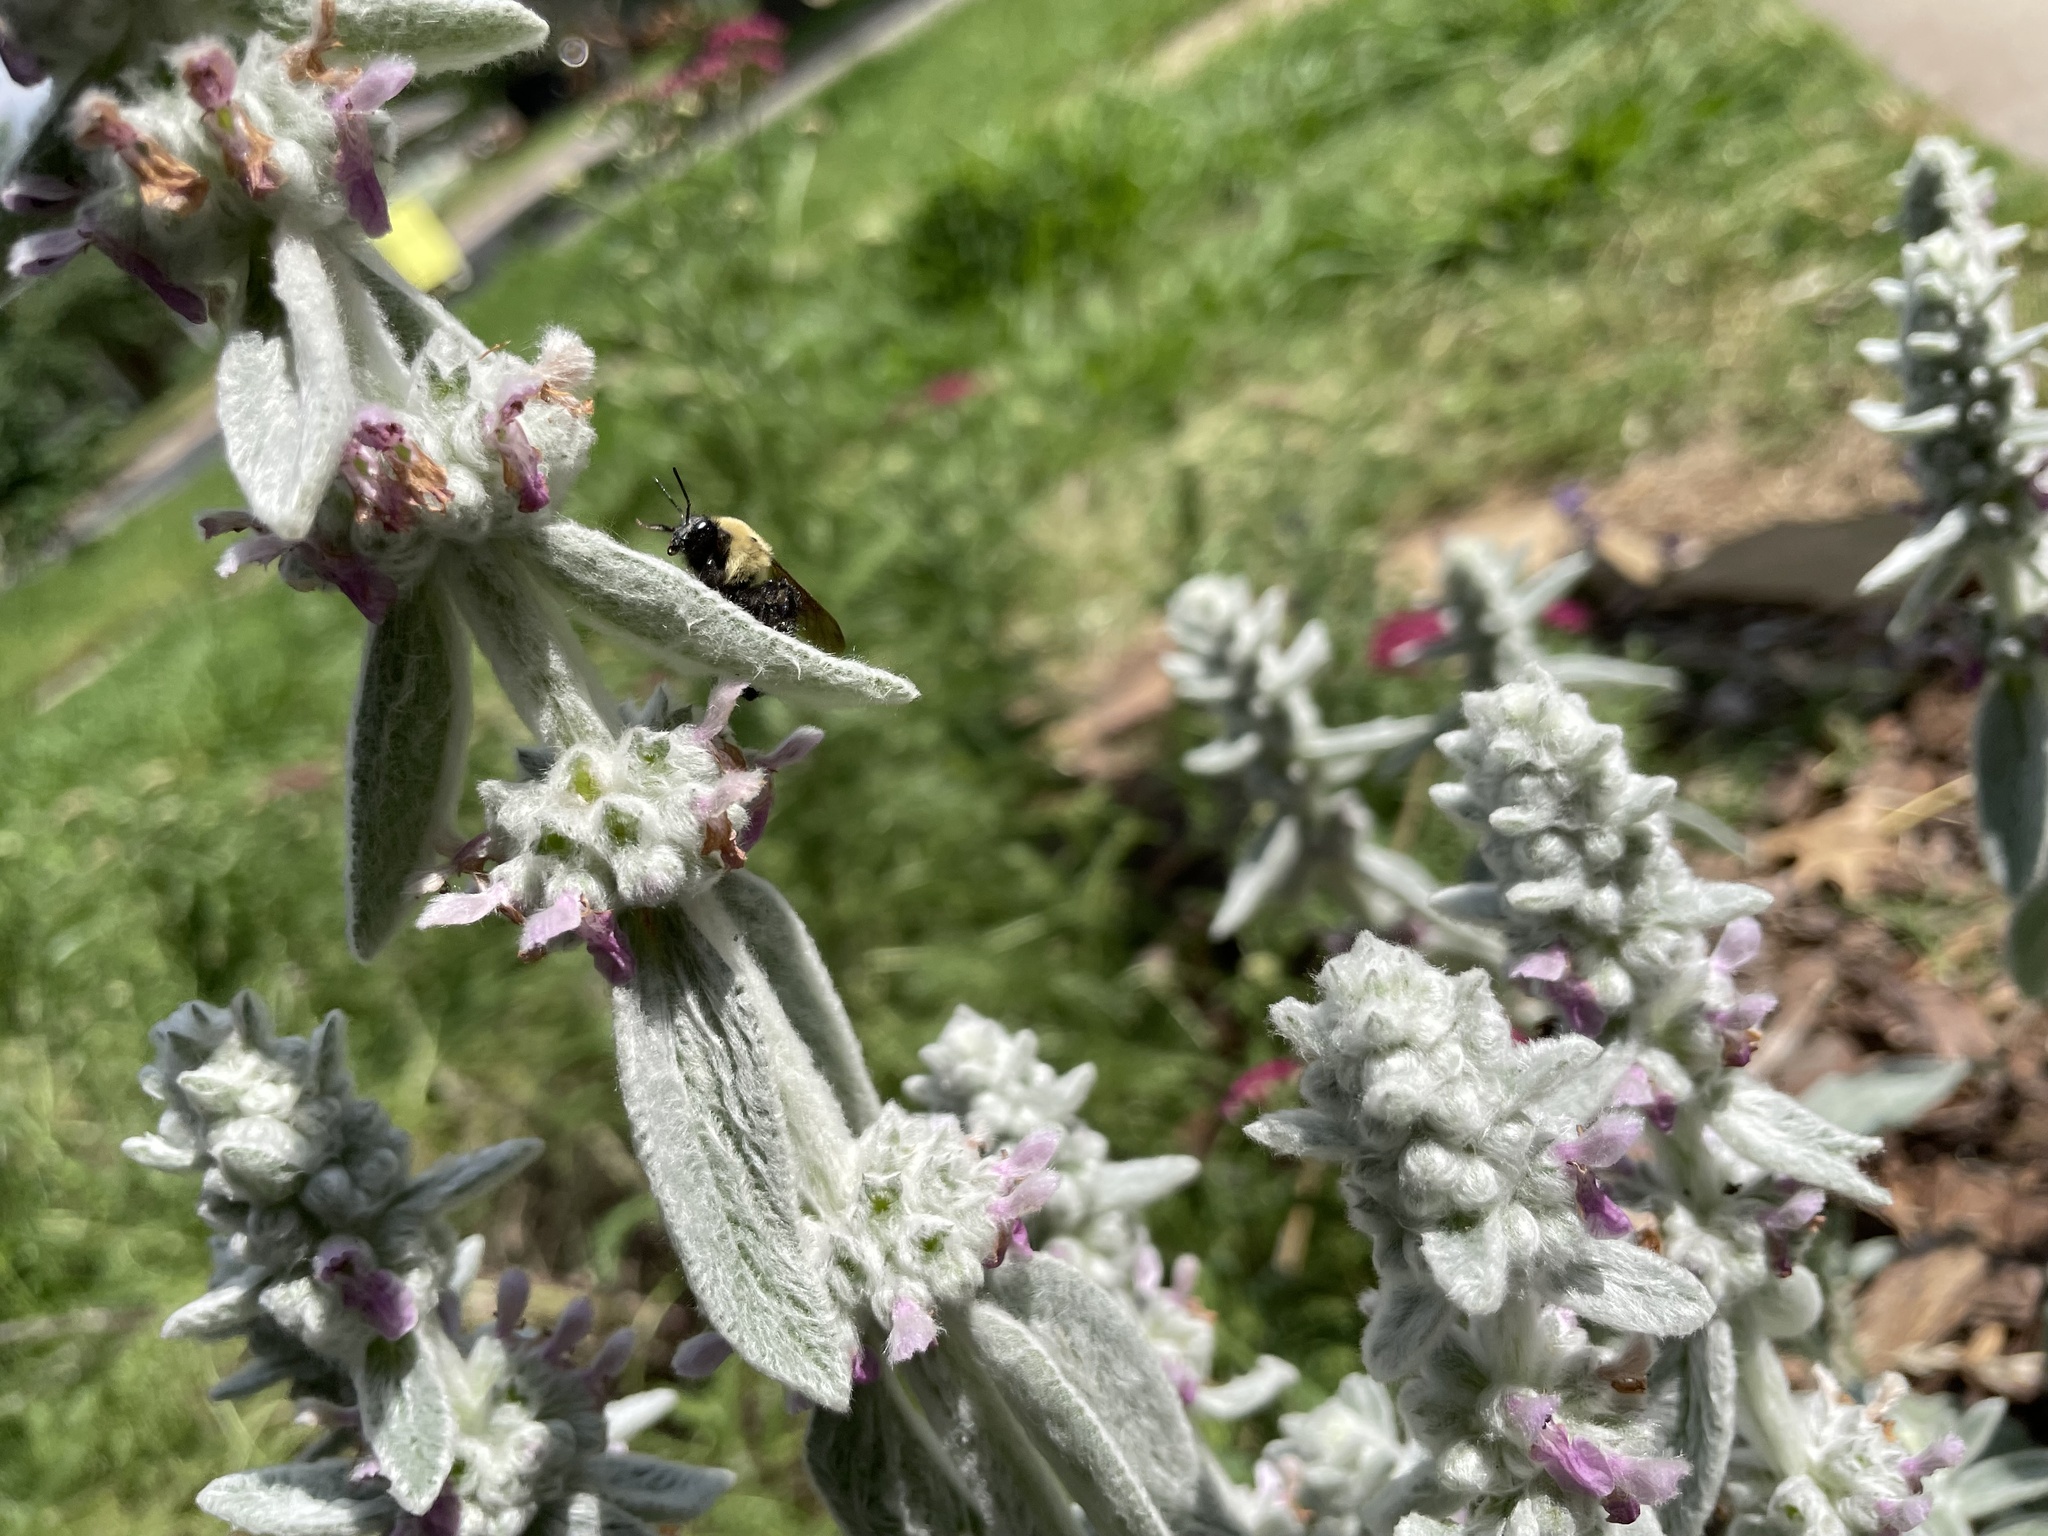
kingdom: Animalia
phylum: Arthropoda
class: Insecta
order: Hymenoptera
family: Apidae
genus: Bombus
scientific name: Bombus griseocollis
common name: Brown-belted bumble bee
